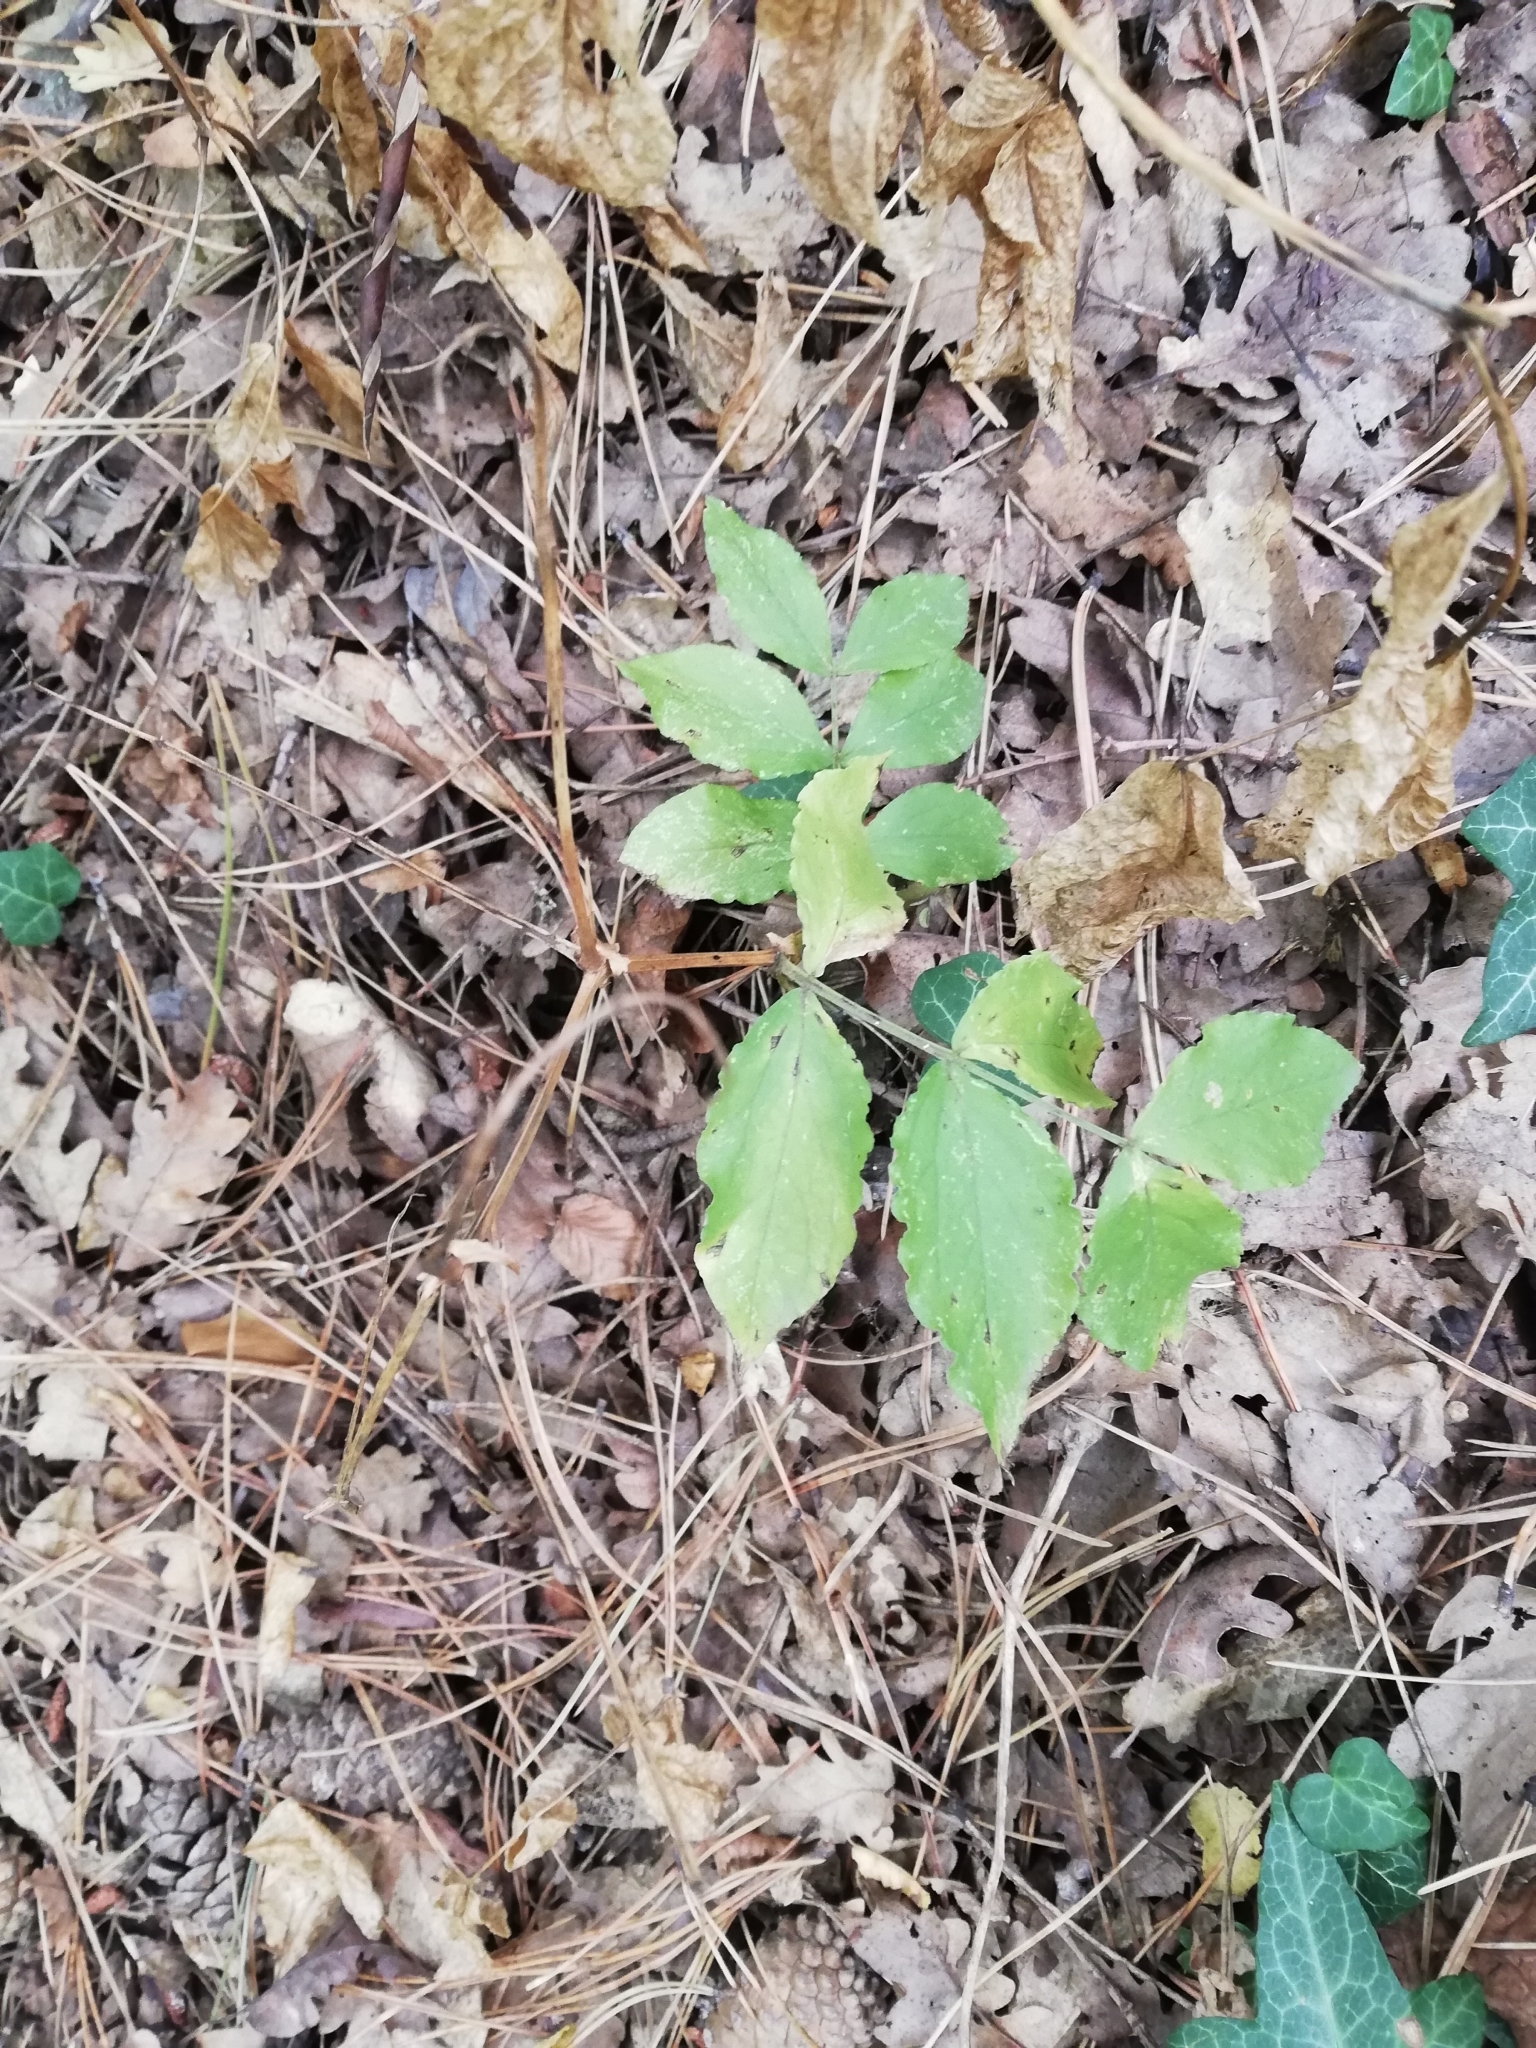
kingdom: Plantae
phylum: Tracheophyta
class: Magnoliopsida
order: Fabales
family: Fabaceae
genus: Lathyrus
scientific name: Lathyrus aureus
